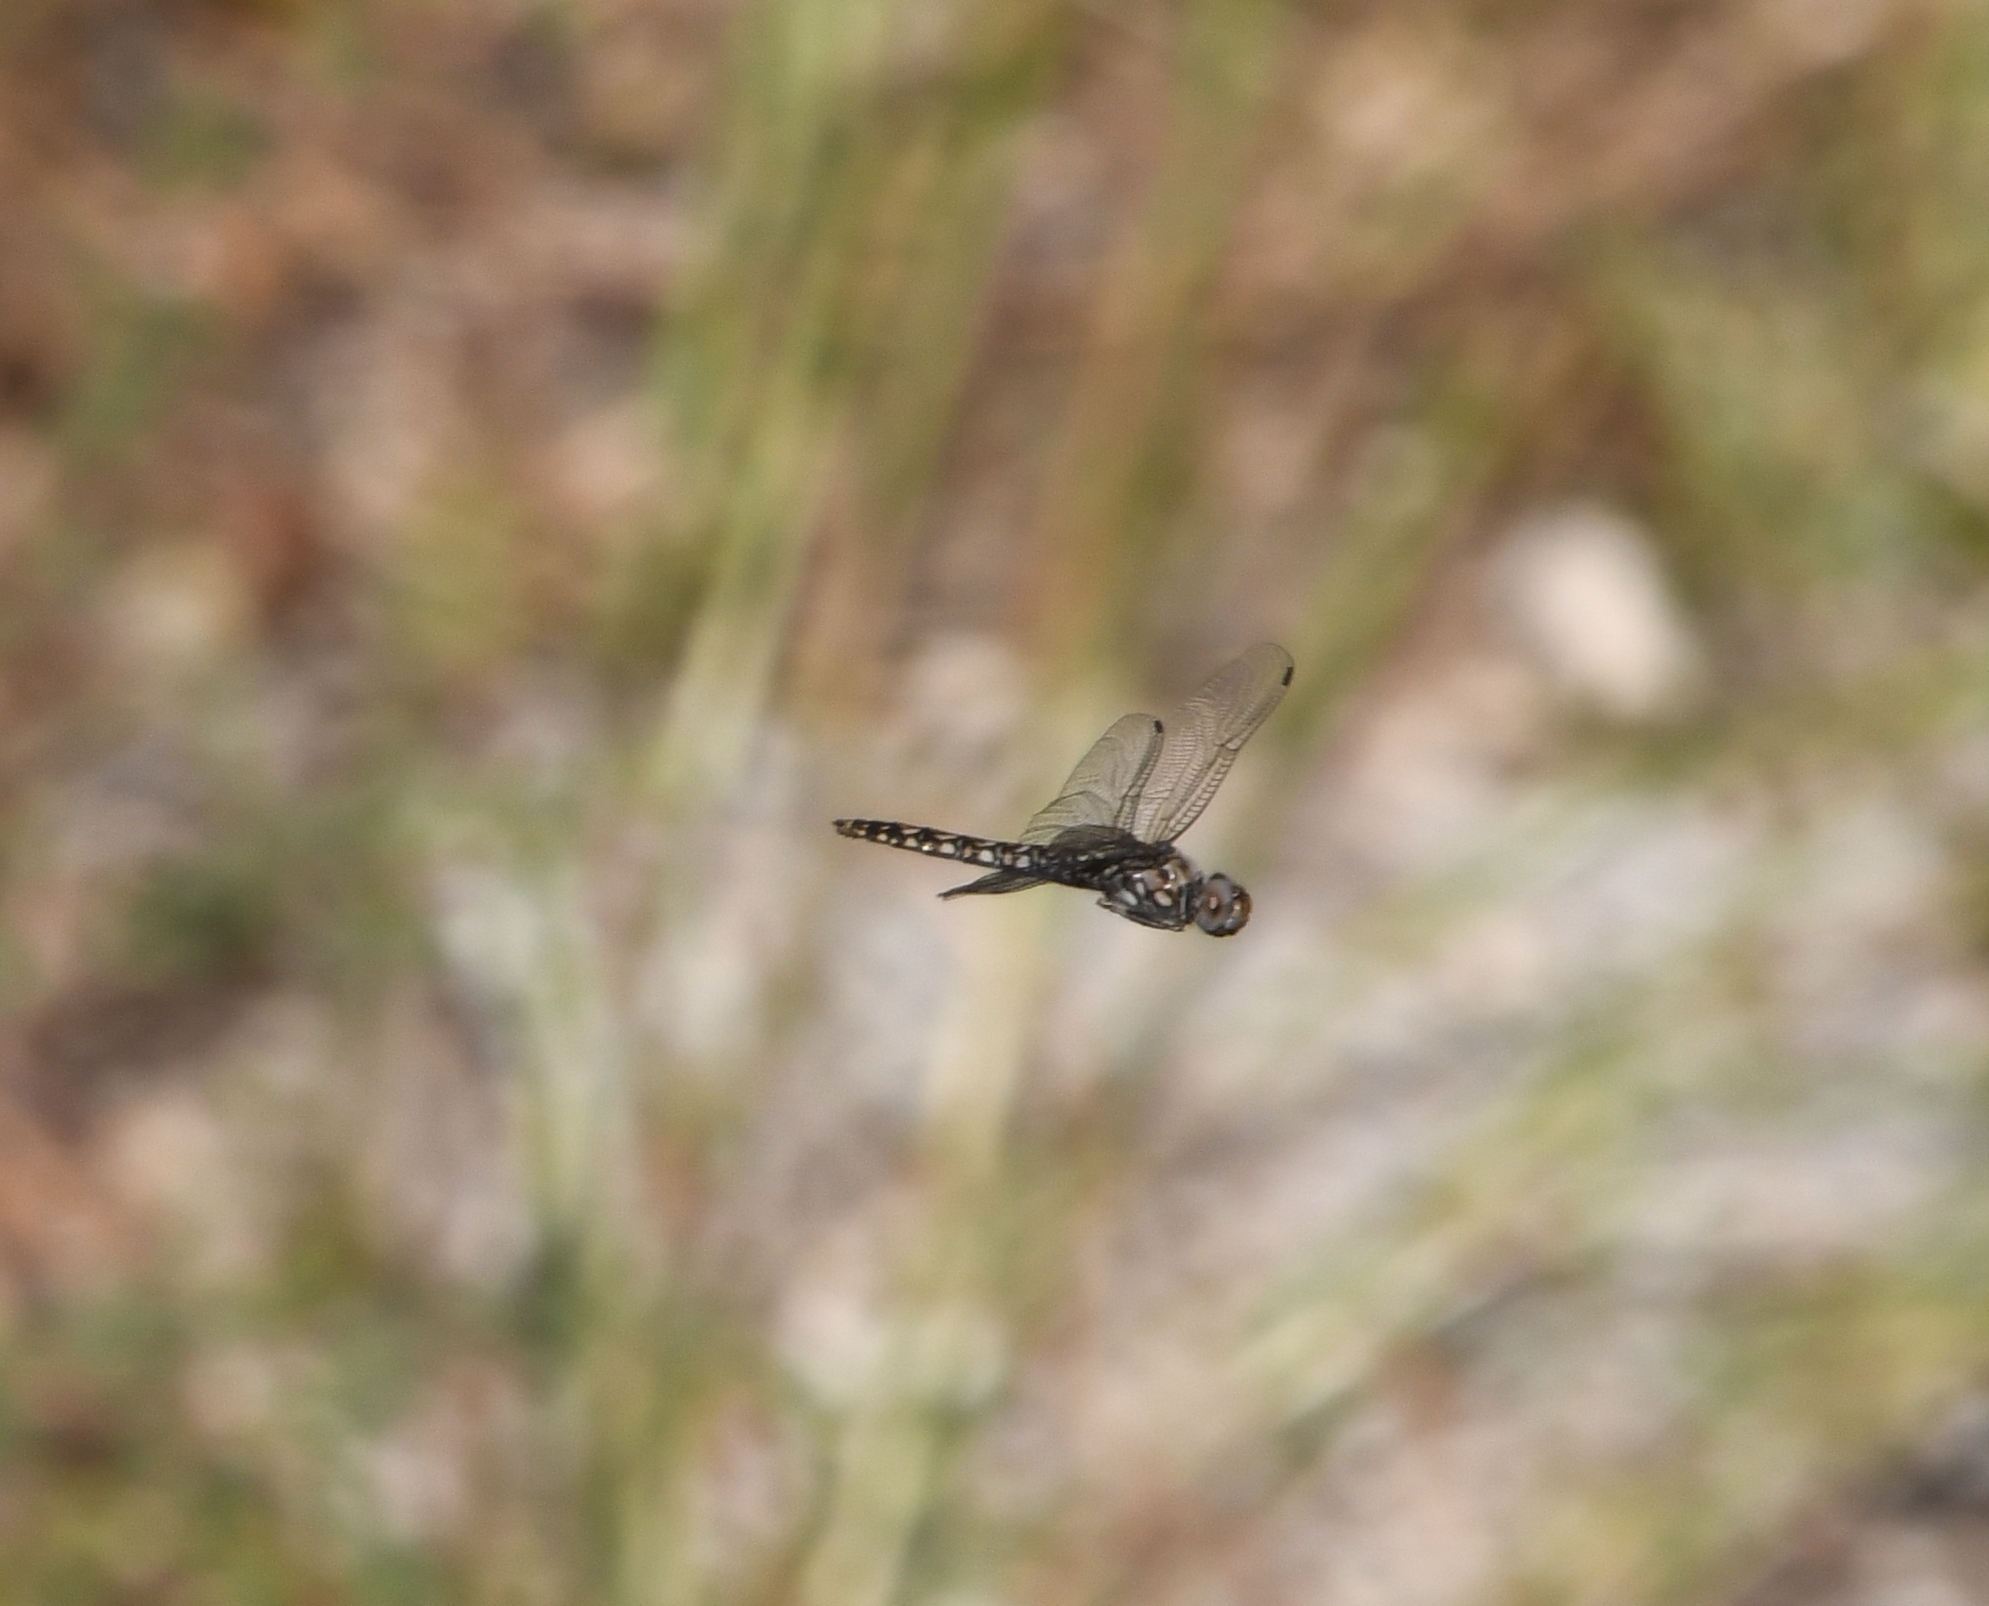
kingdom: Animalia
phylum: Arthropoda
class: Insecta
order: Odonata
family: Libellulidae
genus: Paltothemis
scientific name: Paltothemis lineatipes
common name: Red rock skimmer
